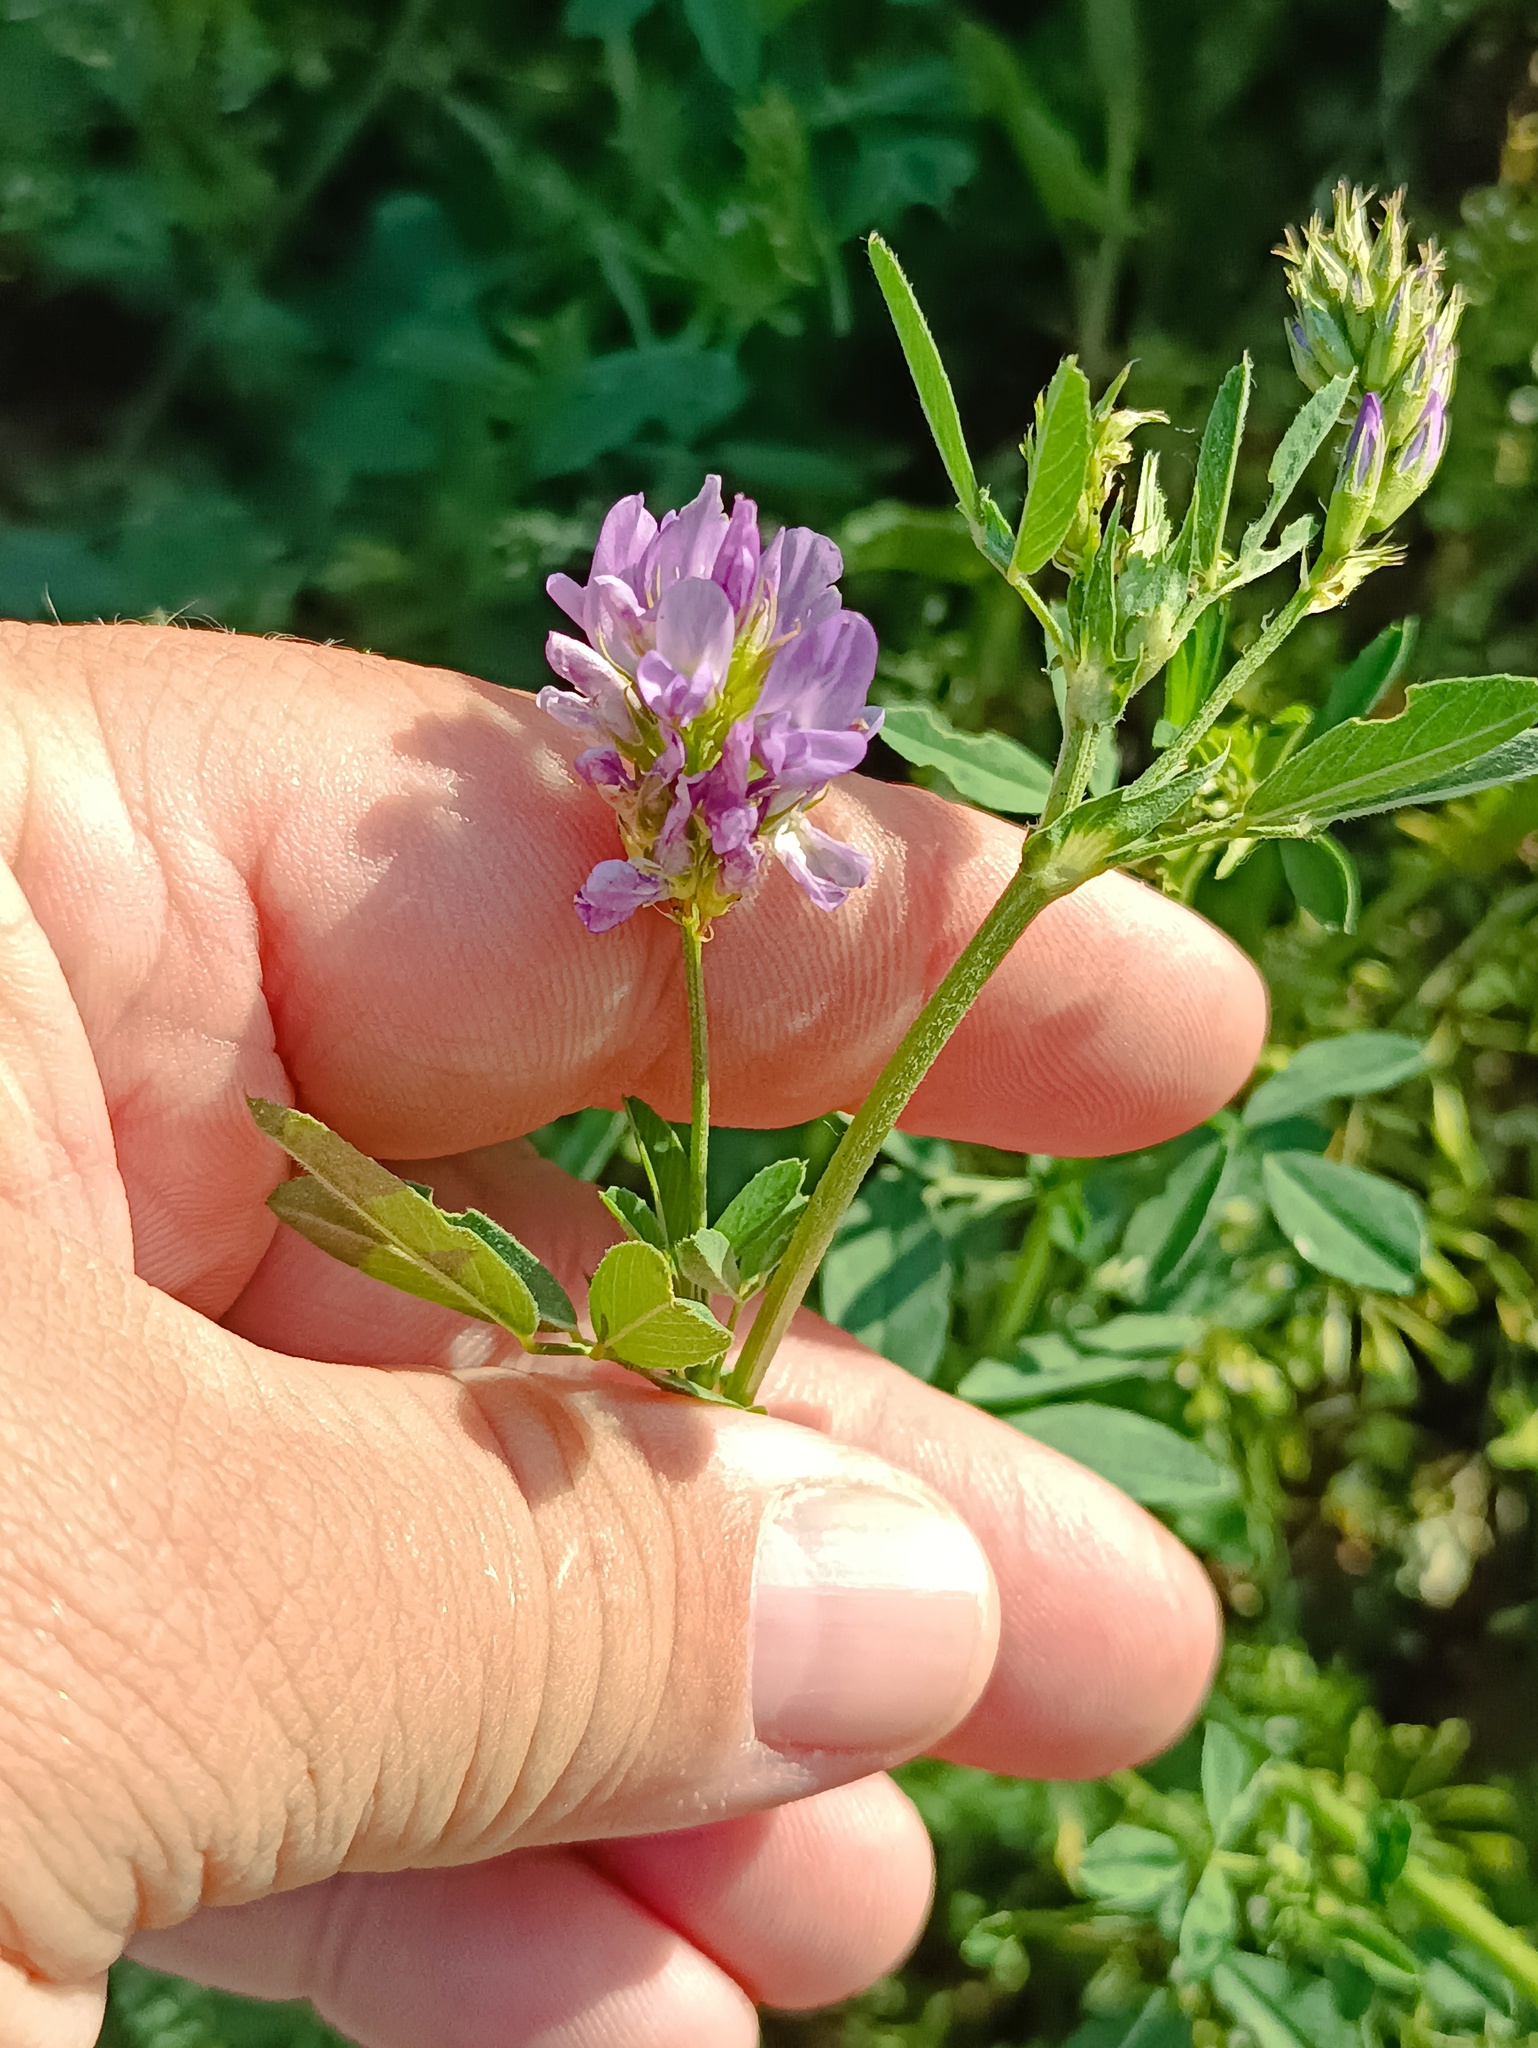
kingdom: Plantae
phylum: Tracheophyta
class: Magnoliopsida
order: Fabales
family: Fabaceae
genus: Medicago
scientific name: Medicago sativa
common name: Alfalfa
